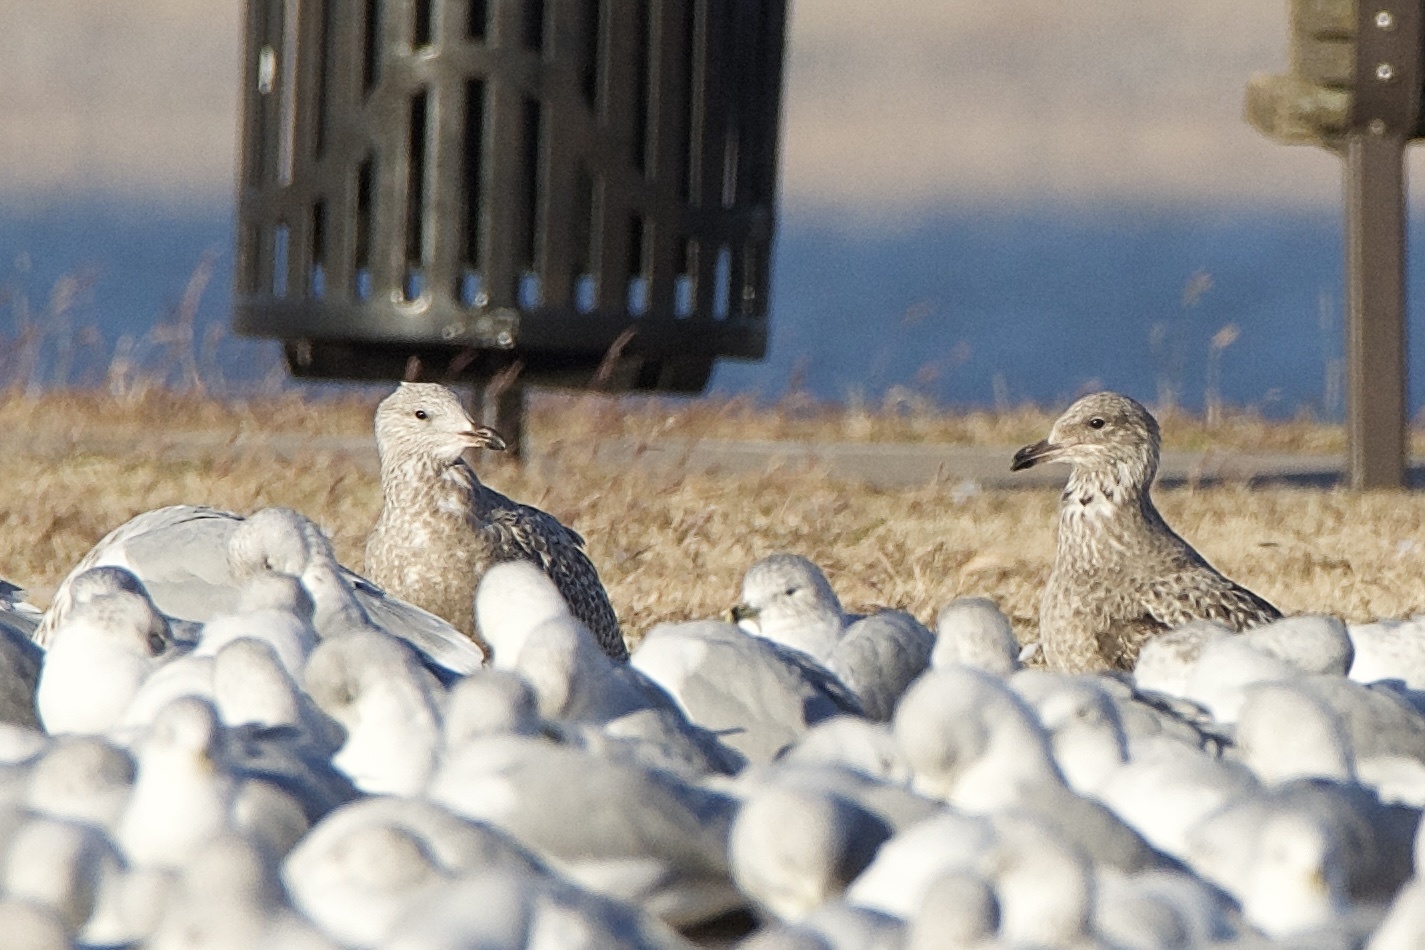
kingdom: Animalia
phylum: Chordata
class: Aves
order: Charadriiformes
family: Laridae
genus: Larus
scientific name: Larus argentatus
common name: Herring gull
